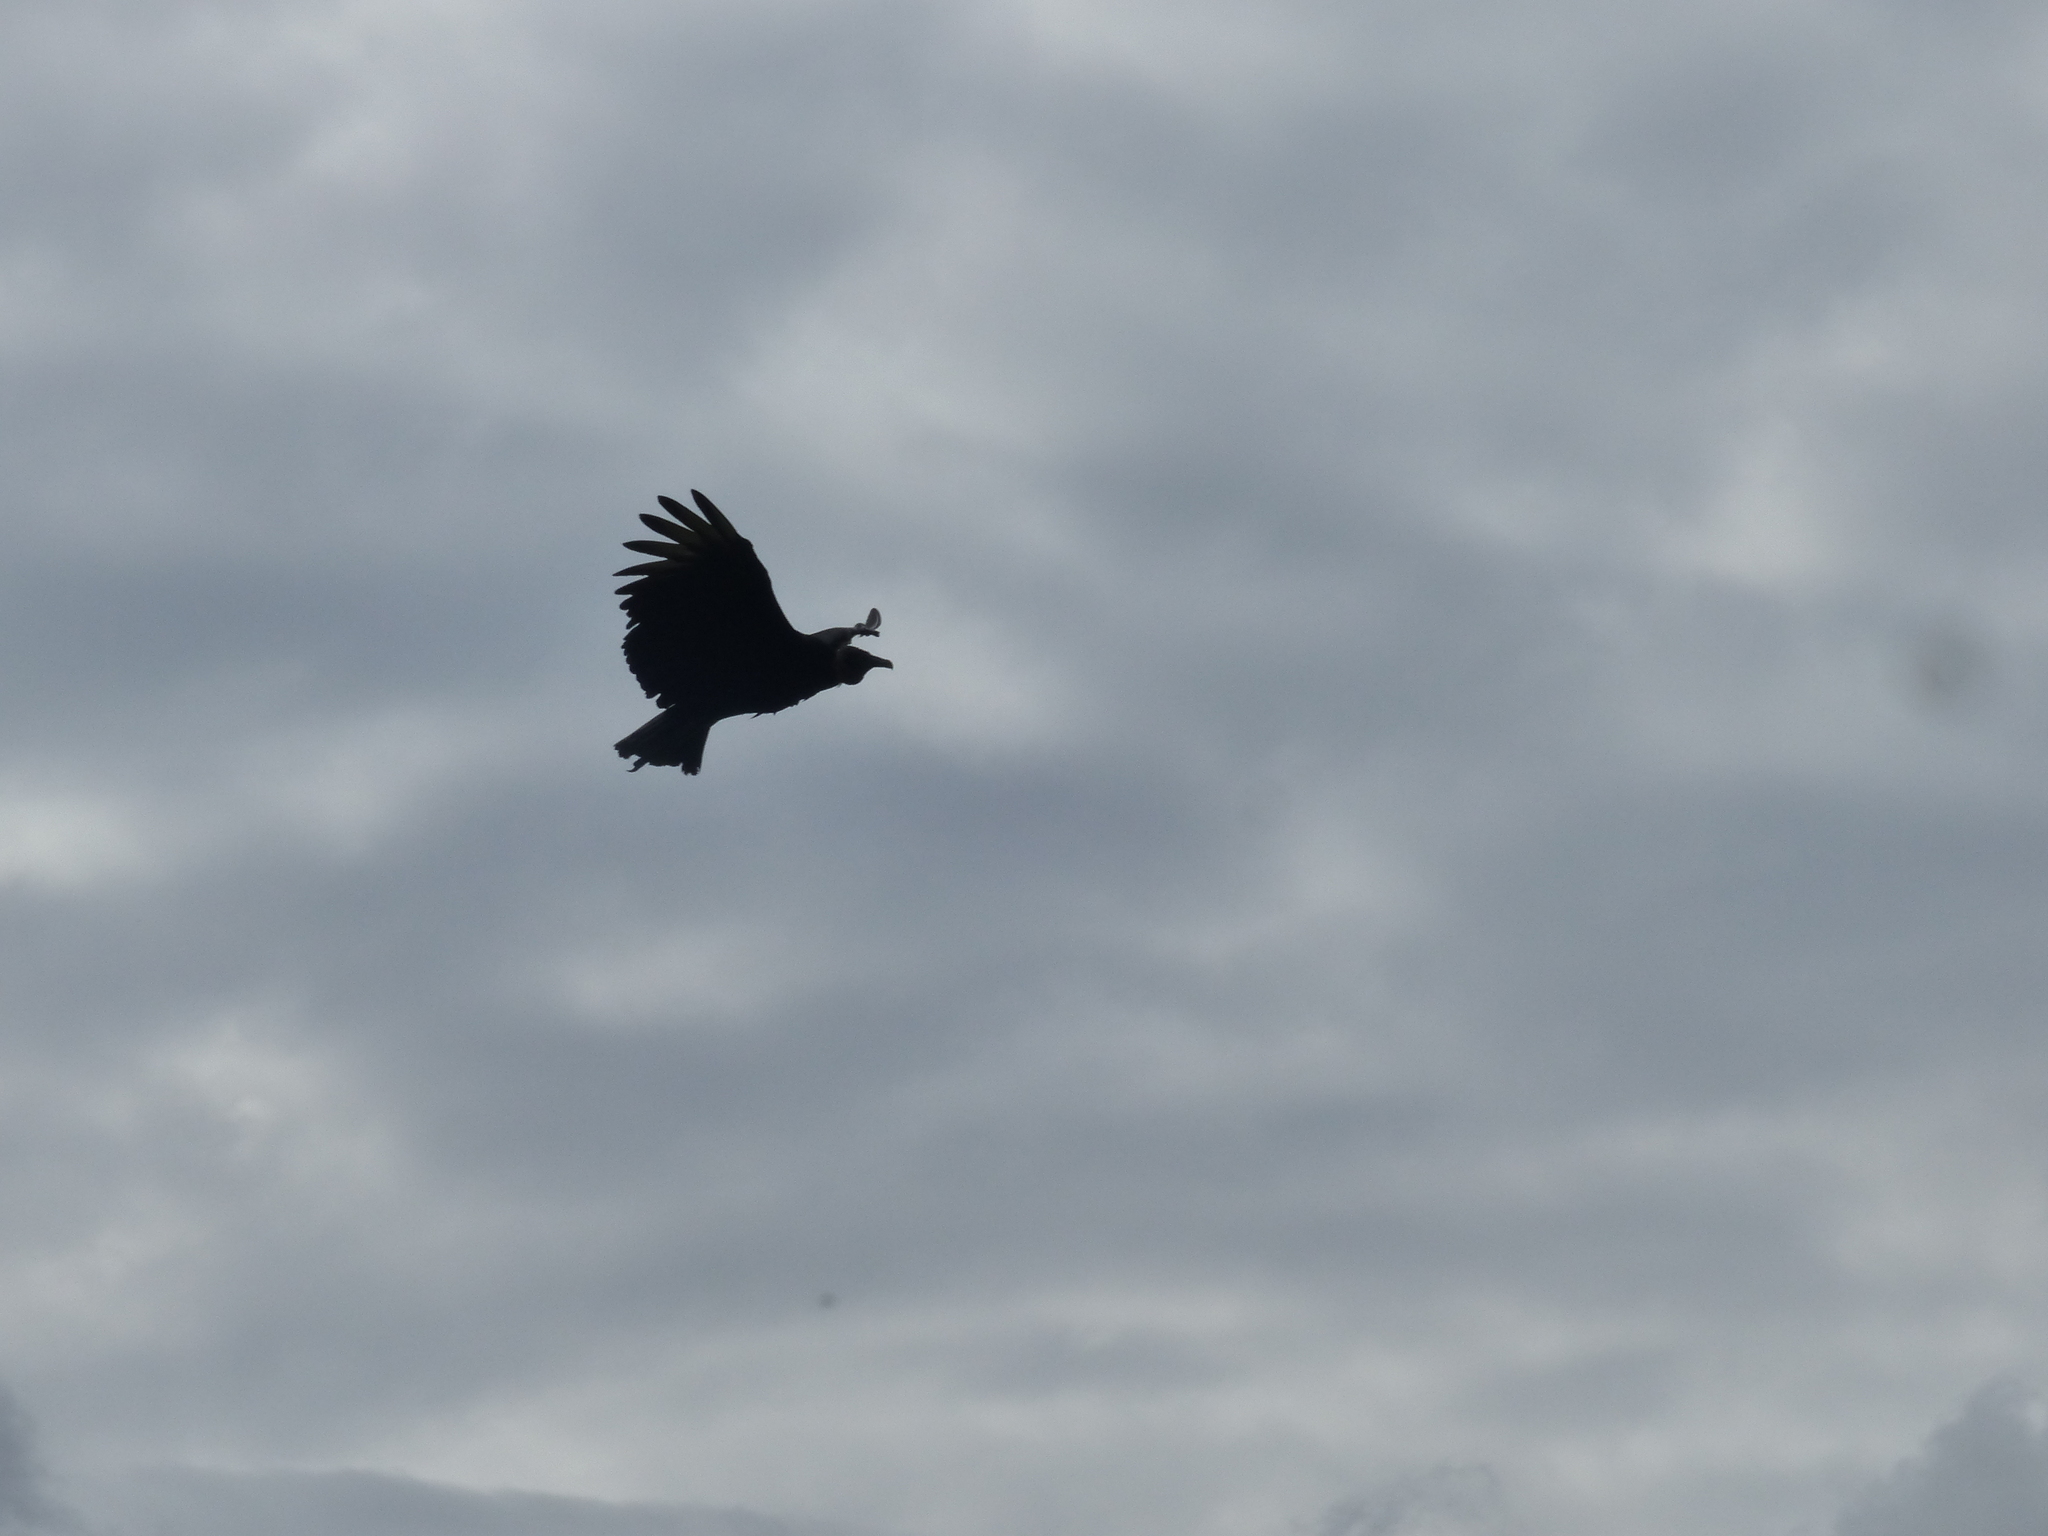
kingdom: Animalia
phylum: Chordata
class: Aves
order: Accipitriformes
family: Cathartidae
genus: Coragyps
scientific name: Coragyps atratus
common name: Black vulture
